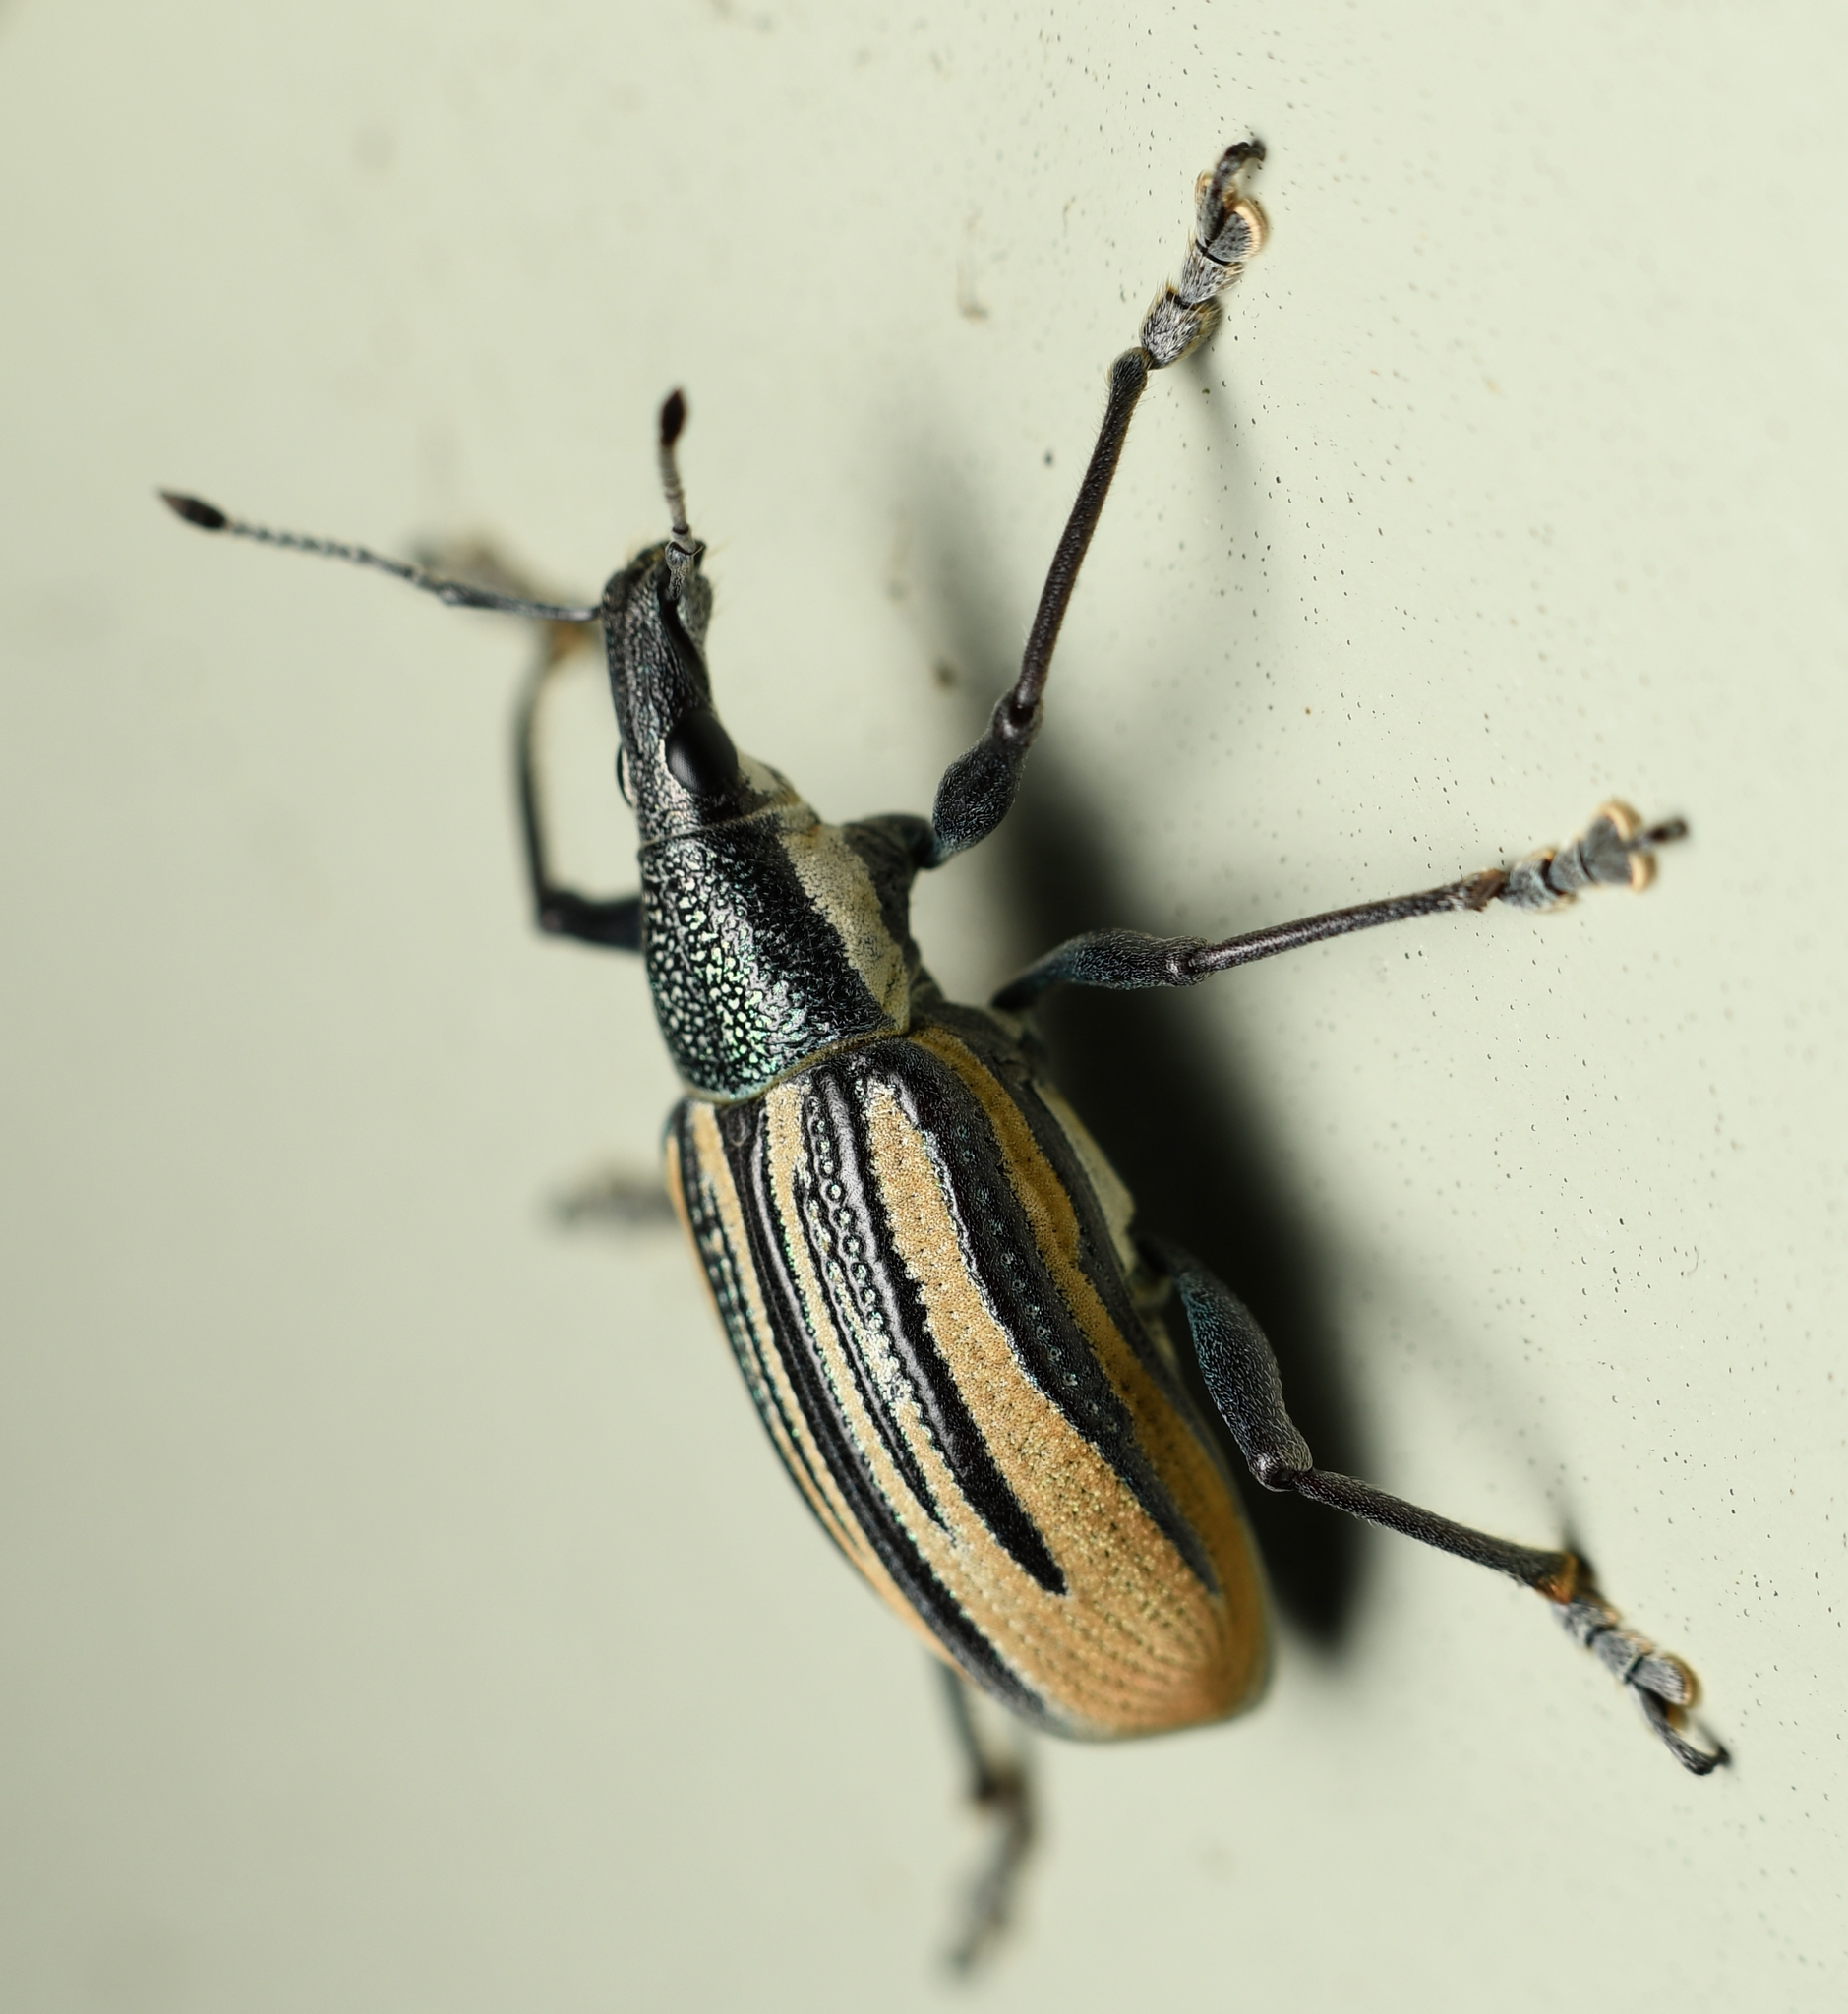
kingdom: Animalia
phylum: Arthropoda
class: Insecta
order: Coleoptera
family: Curculionidae
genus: Diaprepes
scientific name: Diaprepes abbreviatus
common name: Root weevil
